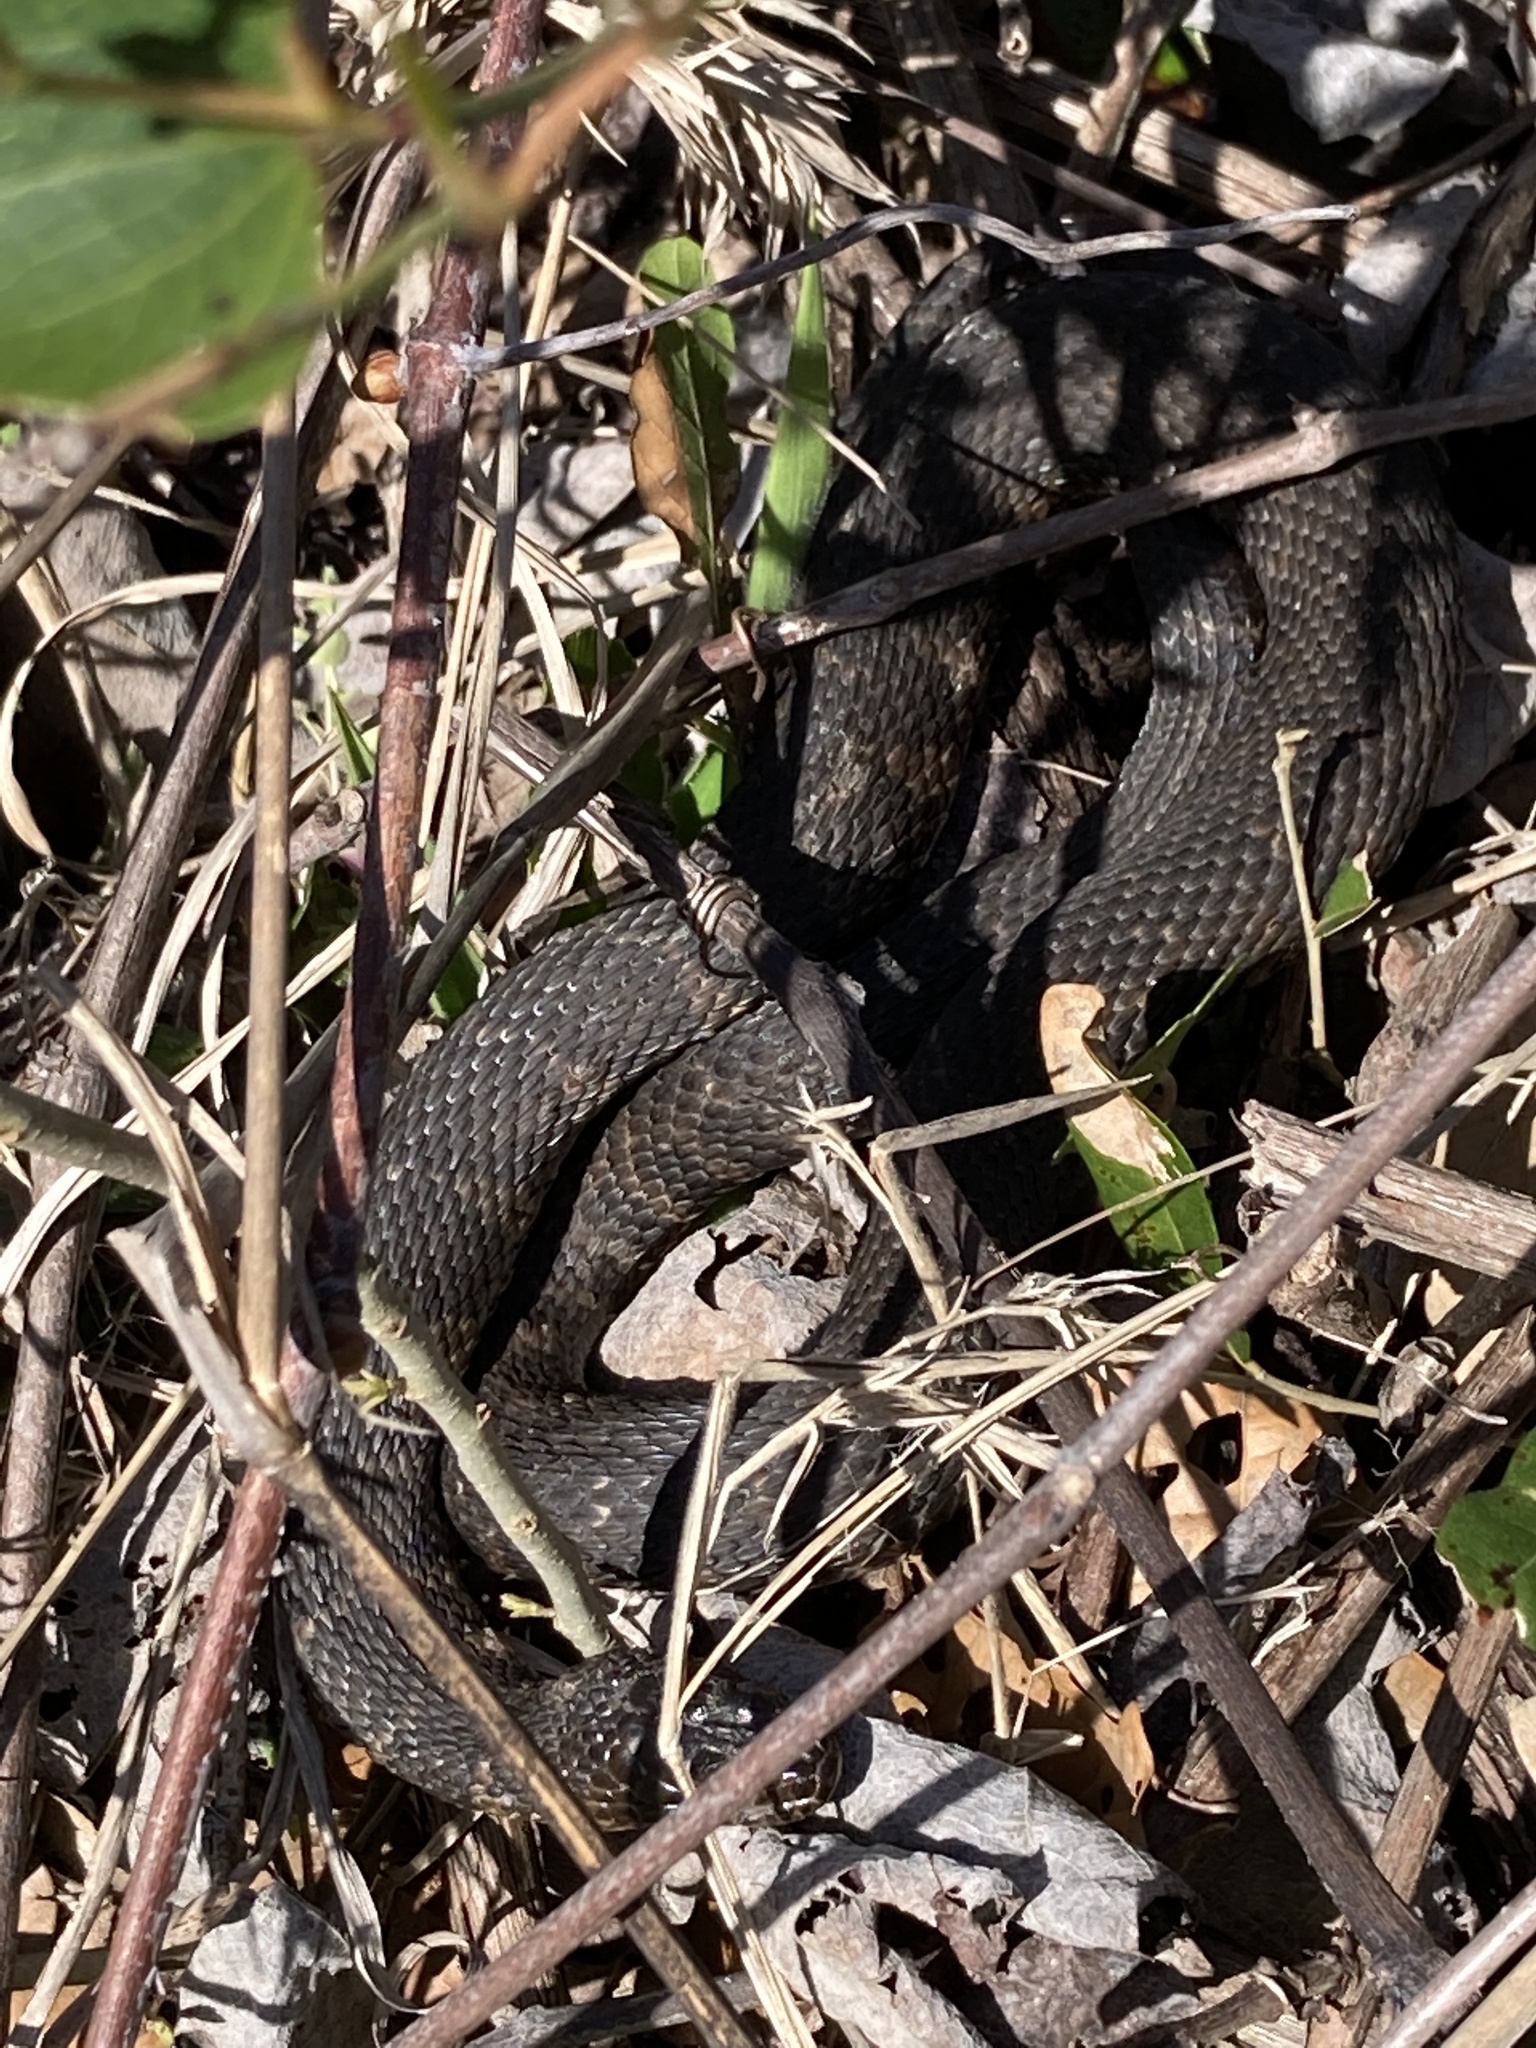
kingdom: Animalia
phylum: Chordata
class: Squamata
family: Colubridae
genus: Nerodia
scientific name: Nerodia sipedon
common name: Northern water snake
